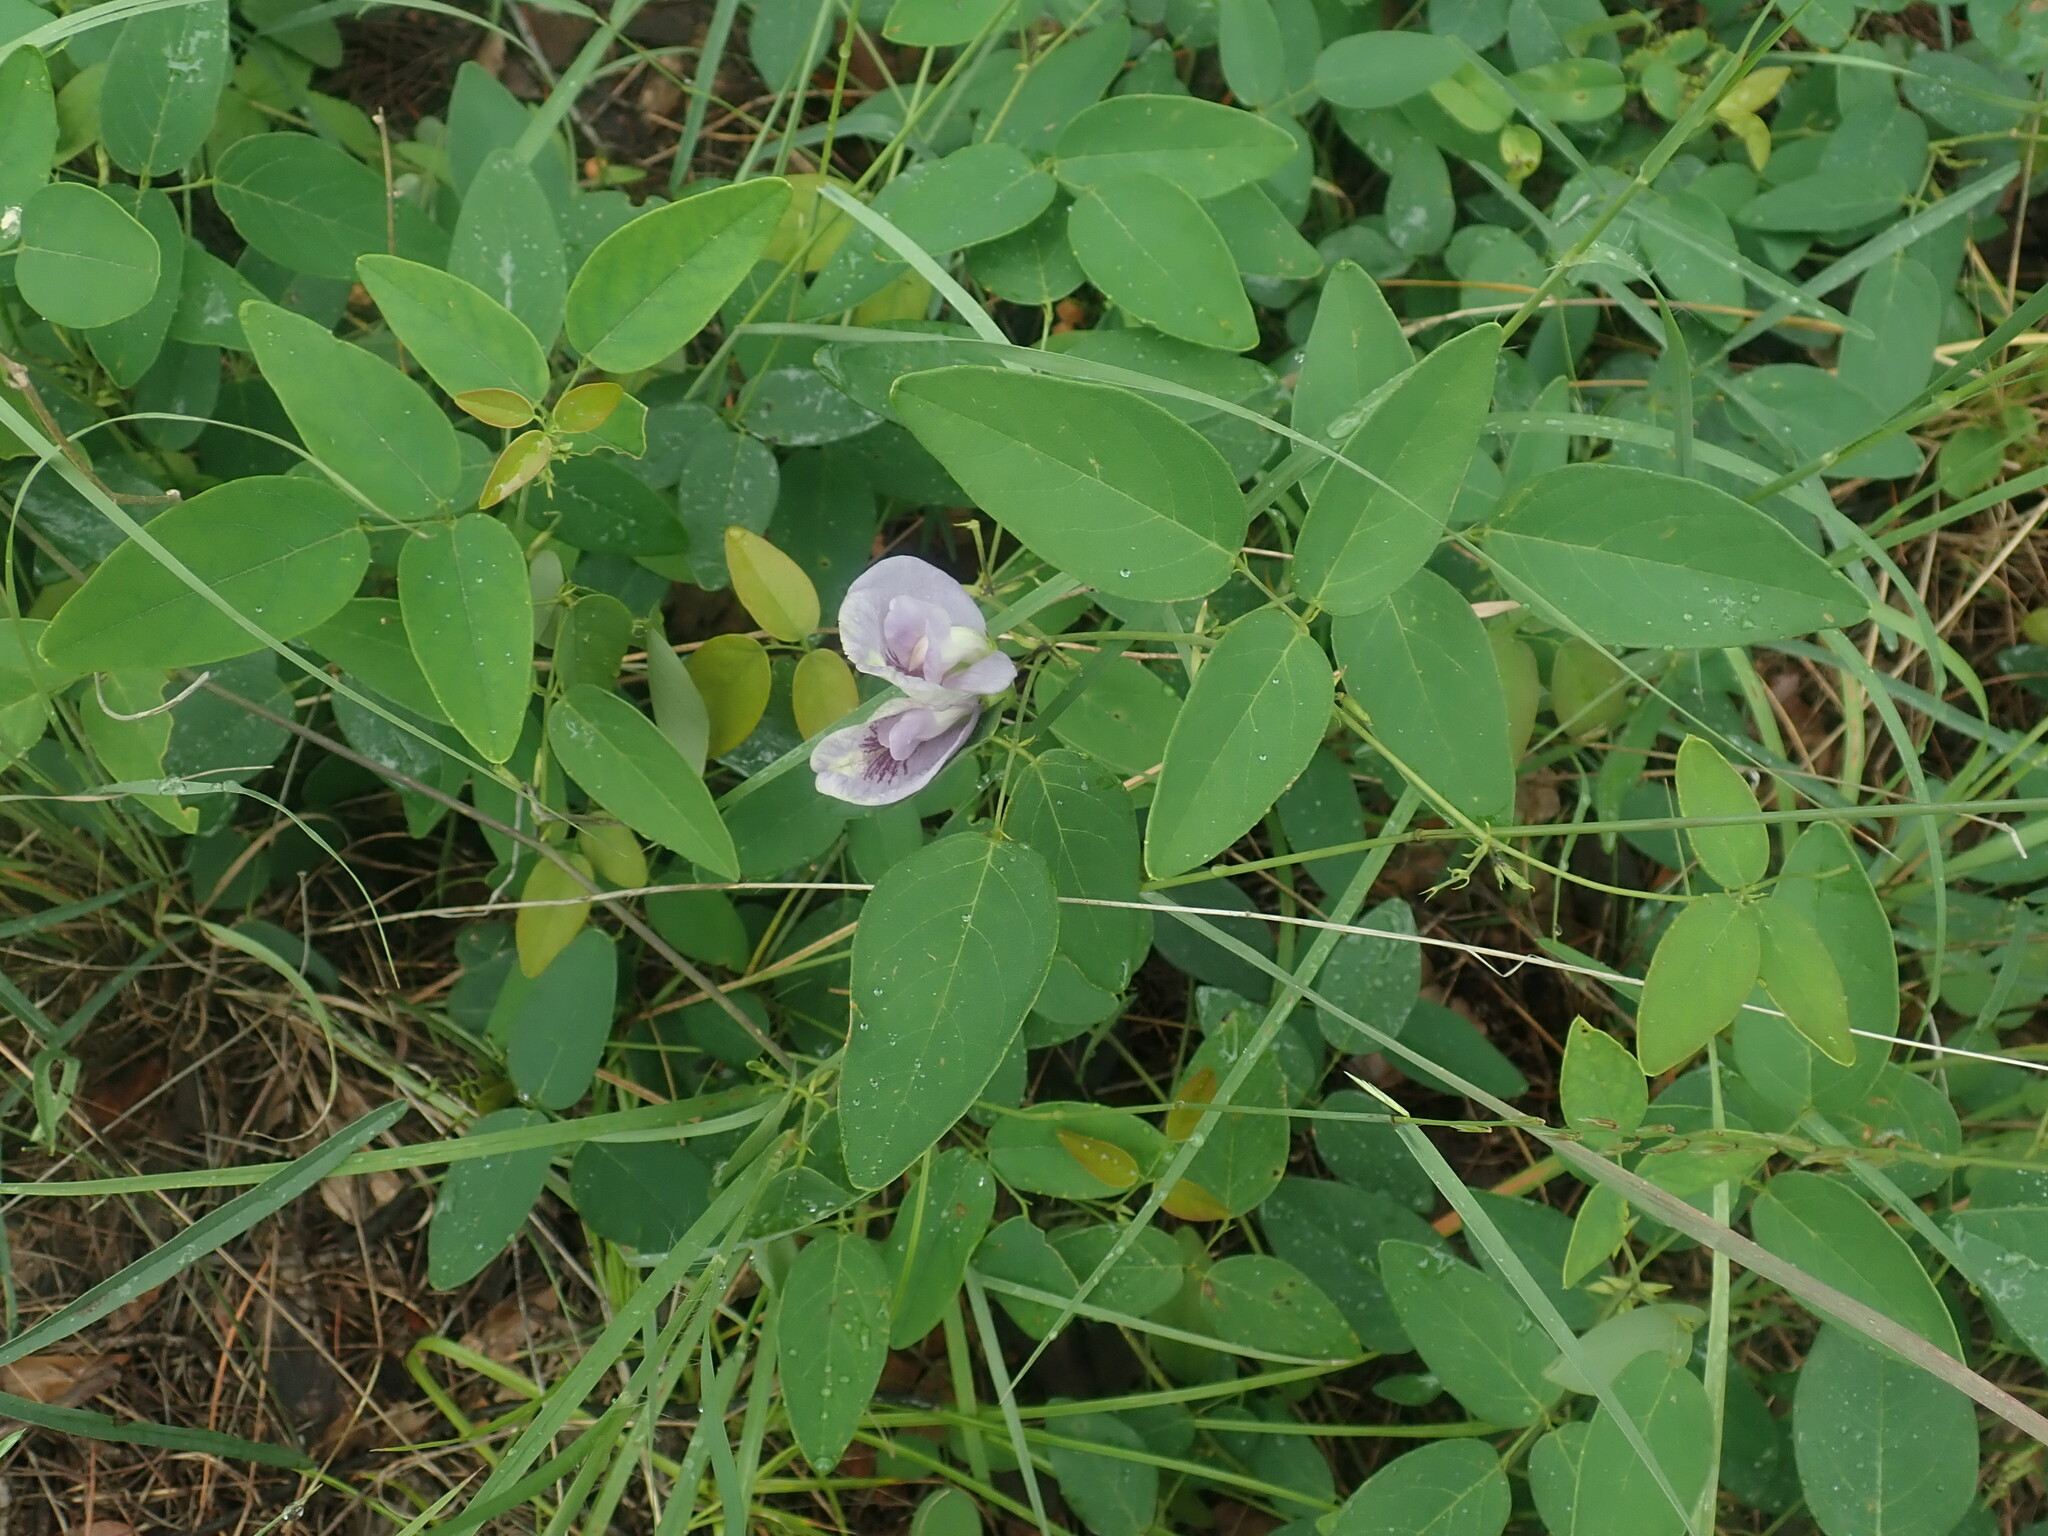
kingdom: Plantae
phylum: Tracheophyta
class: Magnoliopsida
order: Fabales
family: Fabaceae
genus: Clitoria
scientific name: Clitoria mariana
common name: Butterfly-pea
